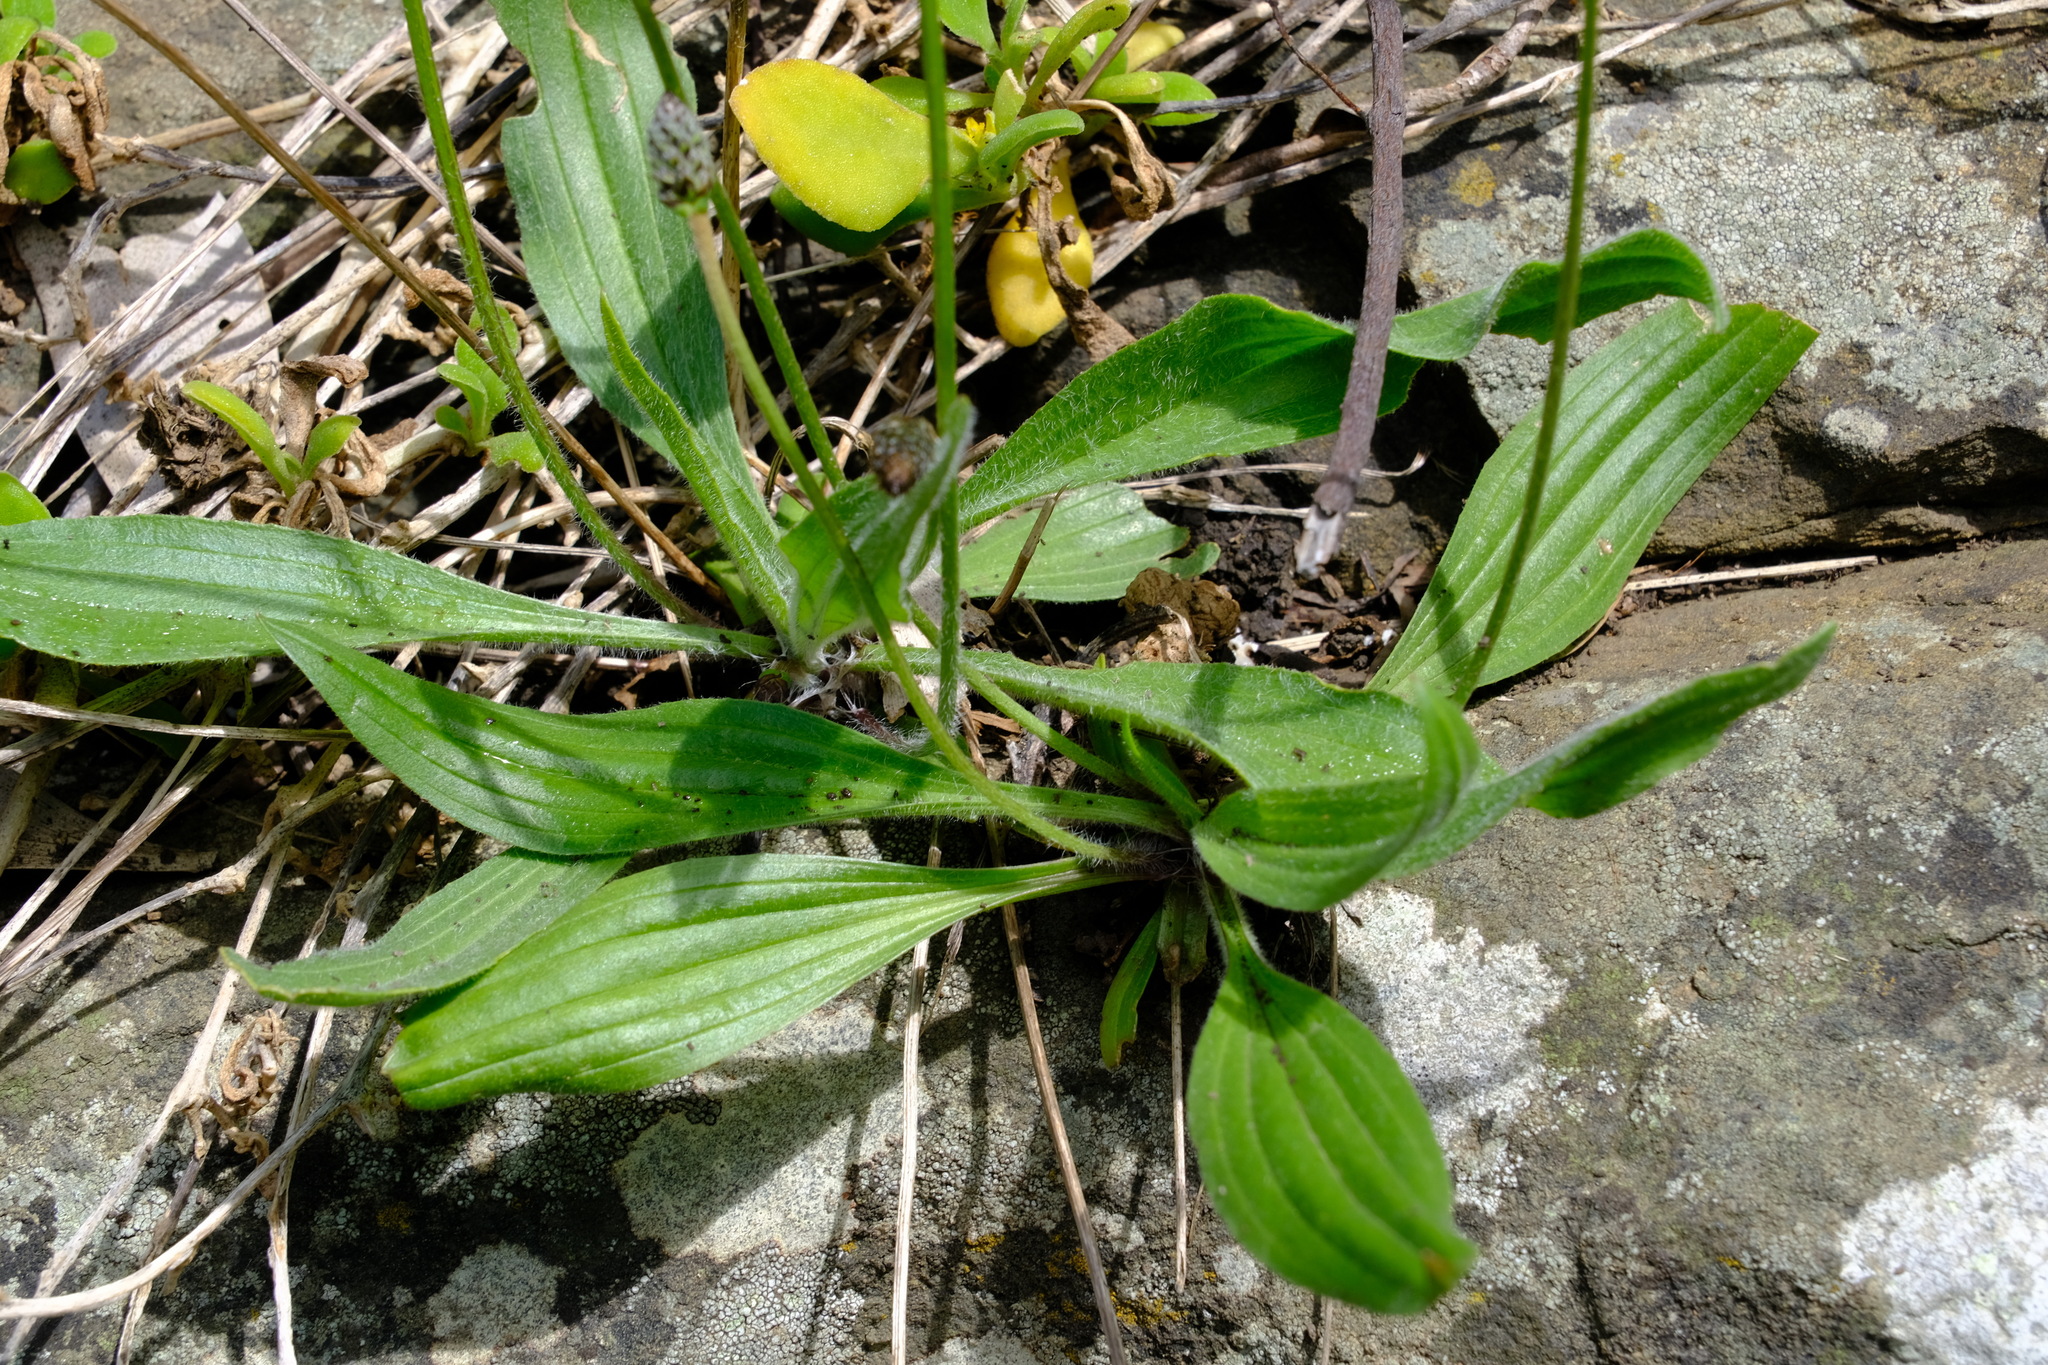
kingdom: Plantae
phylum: Tracheophyta
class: Magnoliopsida
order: Lamiales
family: Plantaginaceae
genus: Plantago
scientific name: Plantago lanceolata
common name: Ribwort plantain
